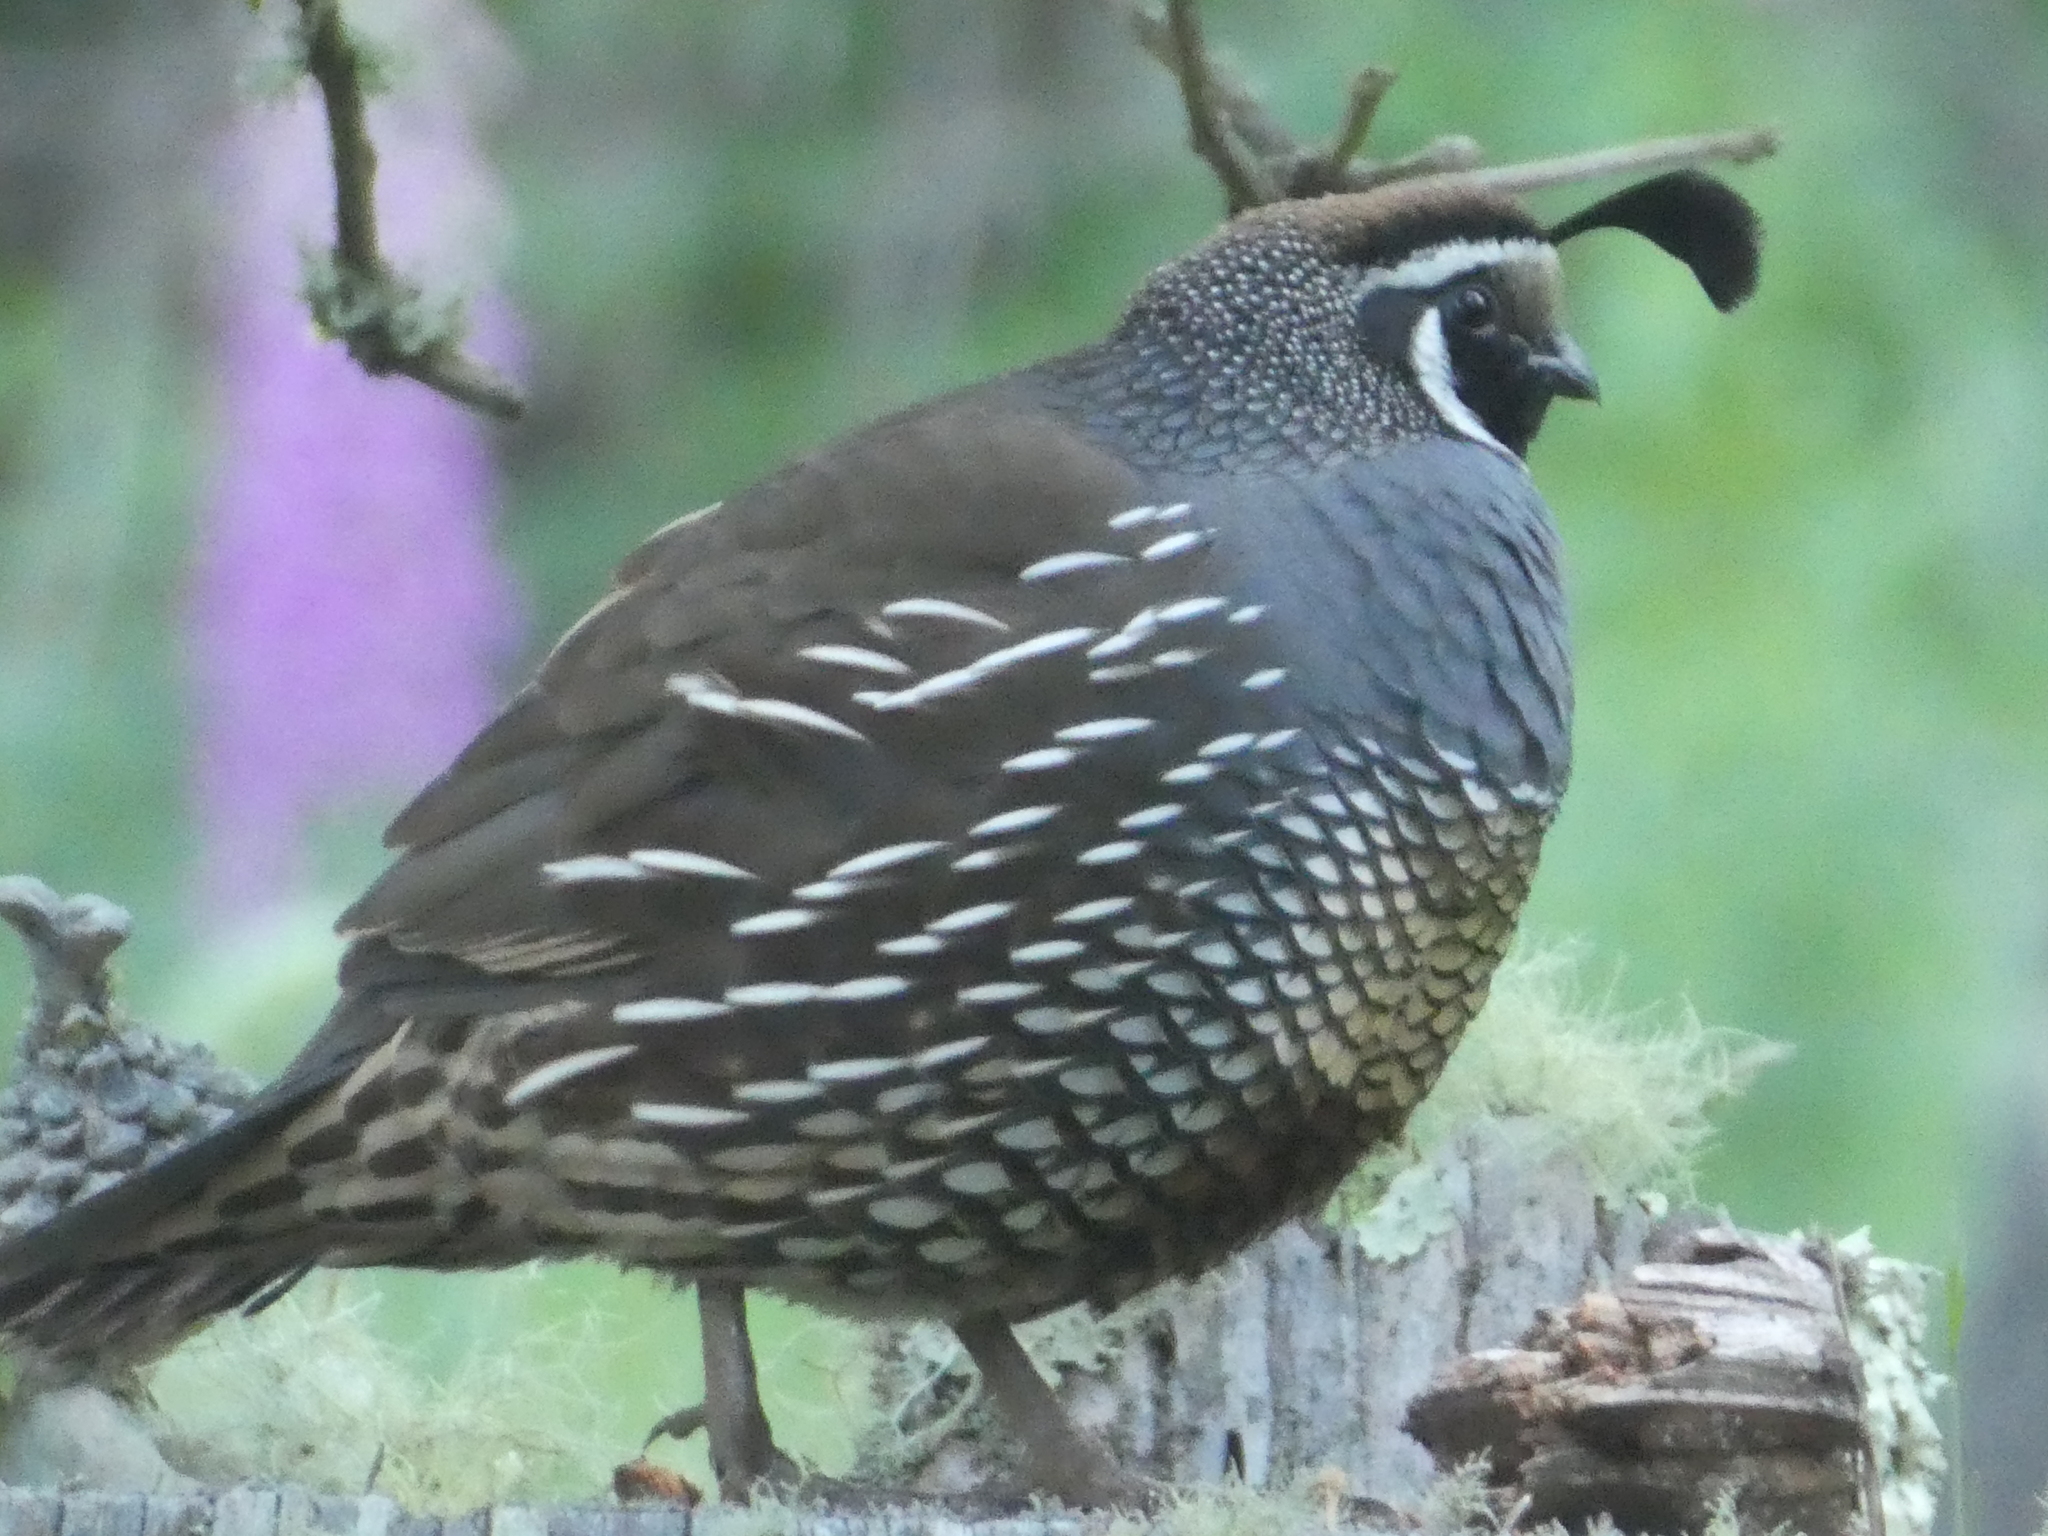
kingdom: Animalia
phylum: Chordata
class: Aves
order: Galliformes
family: Odontophoridae
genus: Callipepla
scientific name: Callipepla californica
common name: California quail
